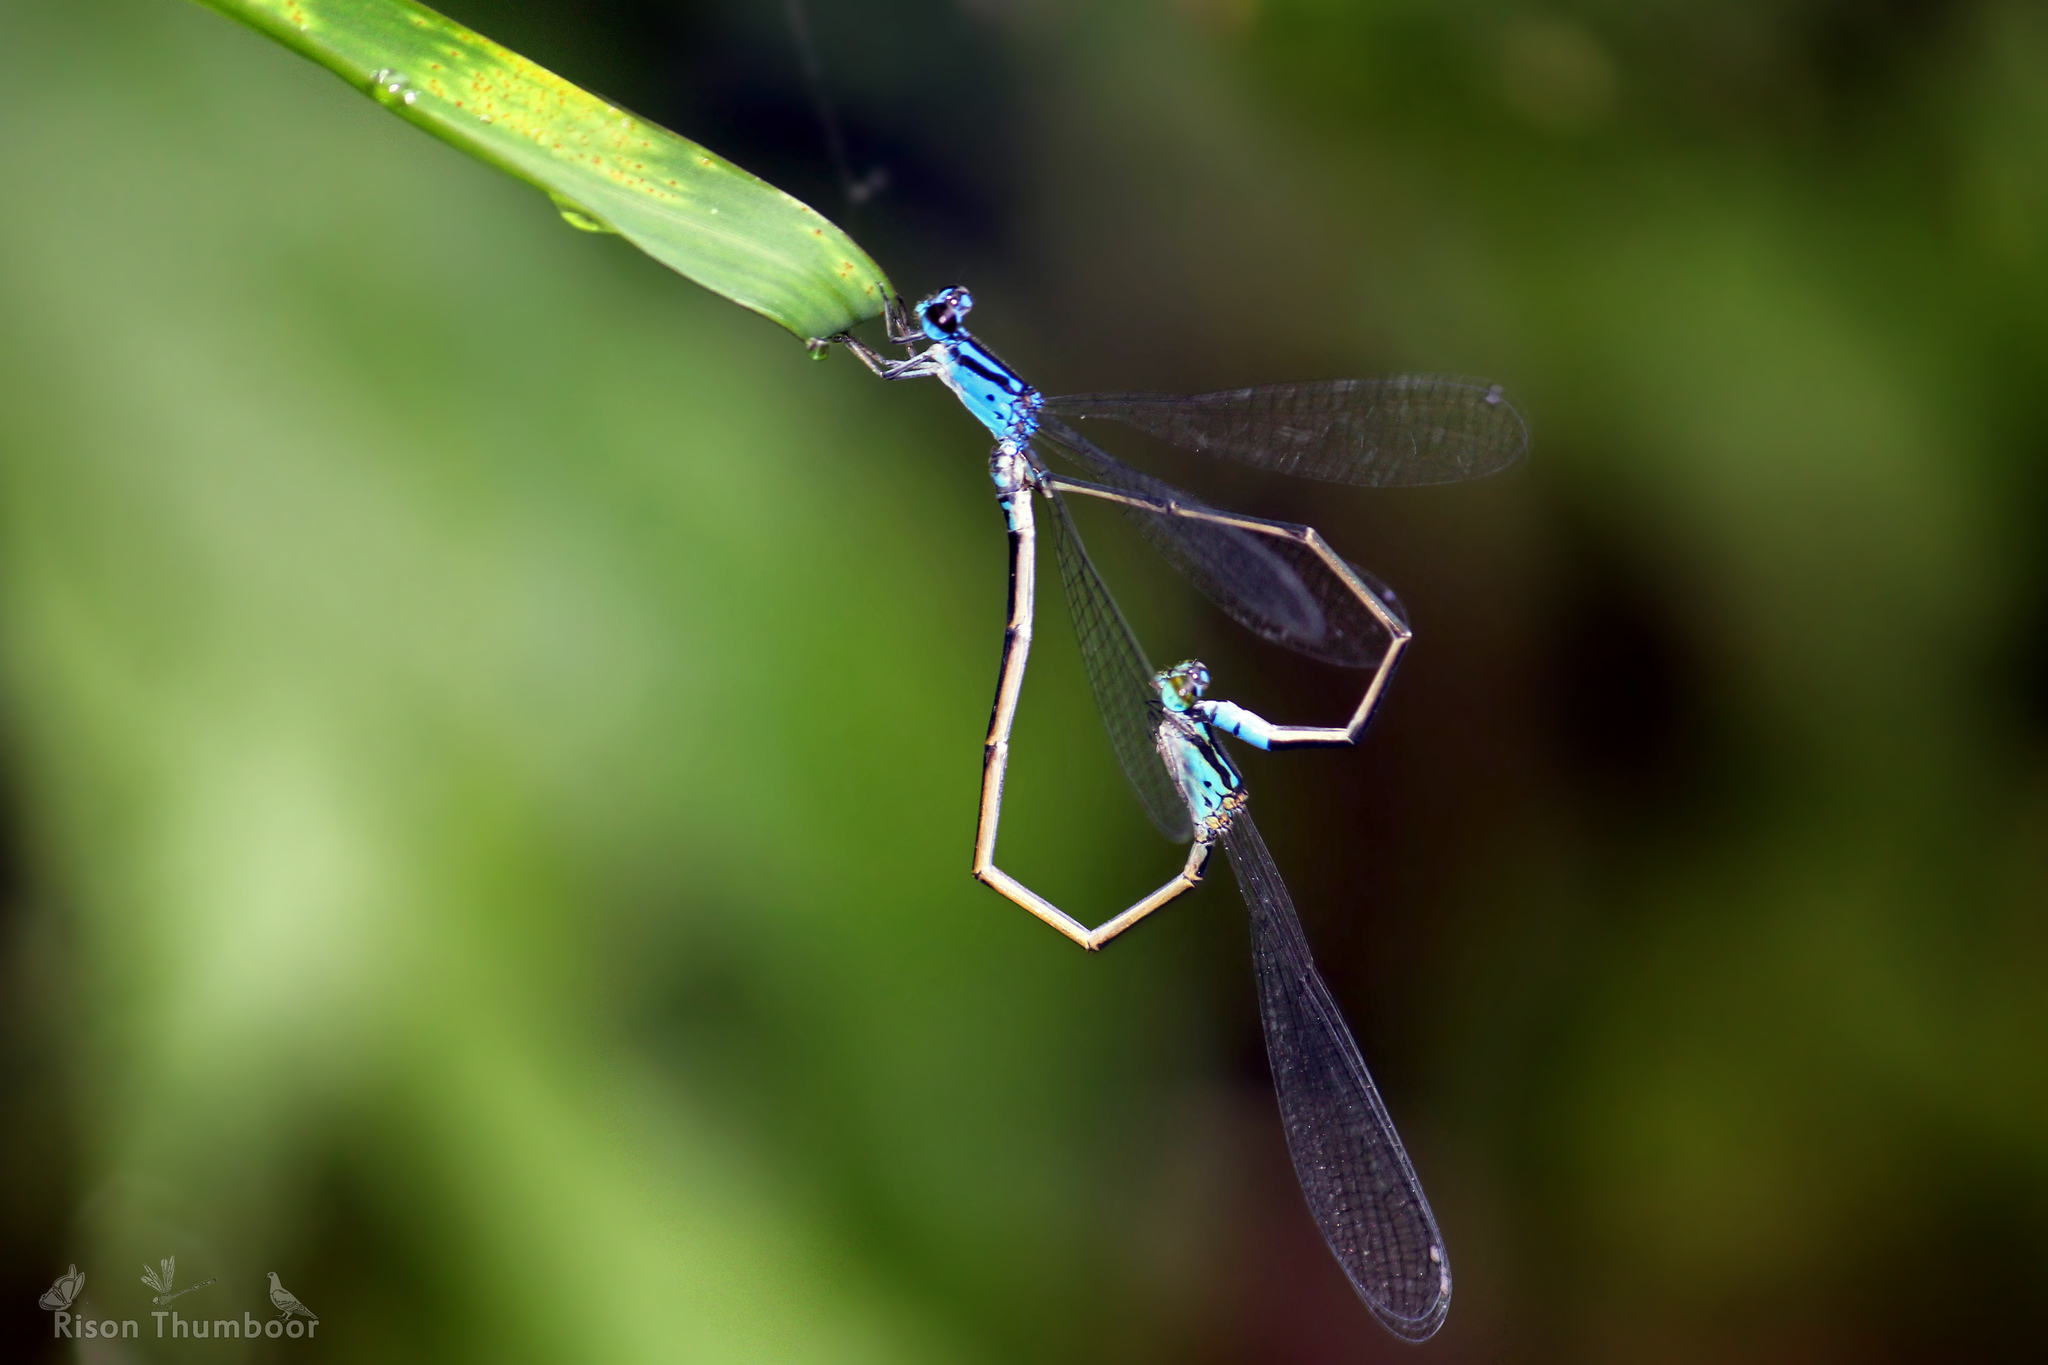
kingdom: Animalia
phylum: Arthropoda
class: Insecta
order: Odonata
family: Coenagrionidae
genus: Archibasis
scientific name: Archibasis oscillans
